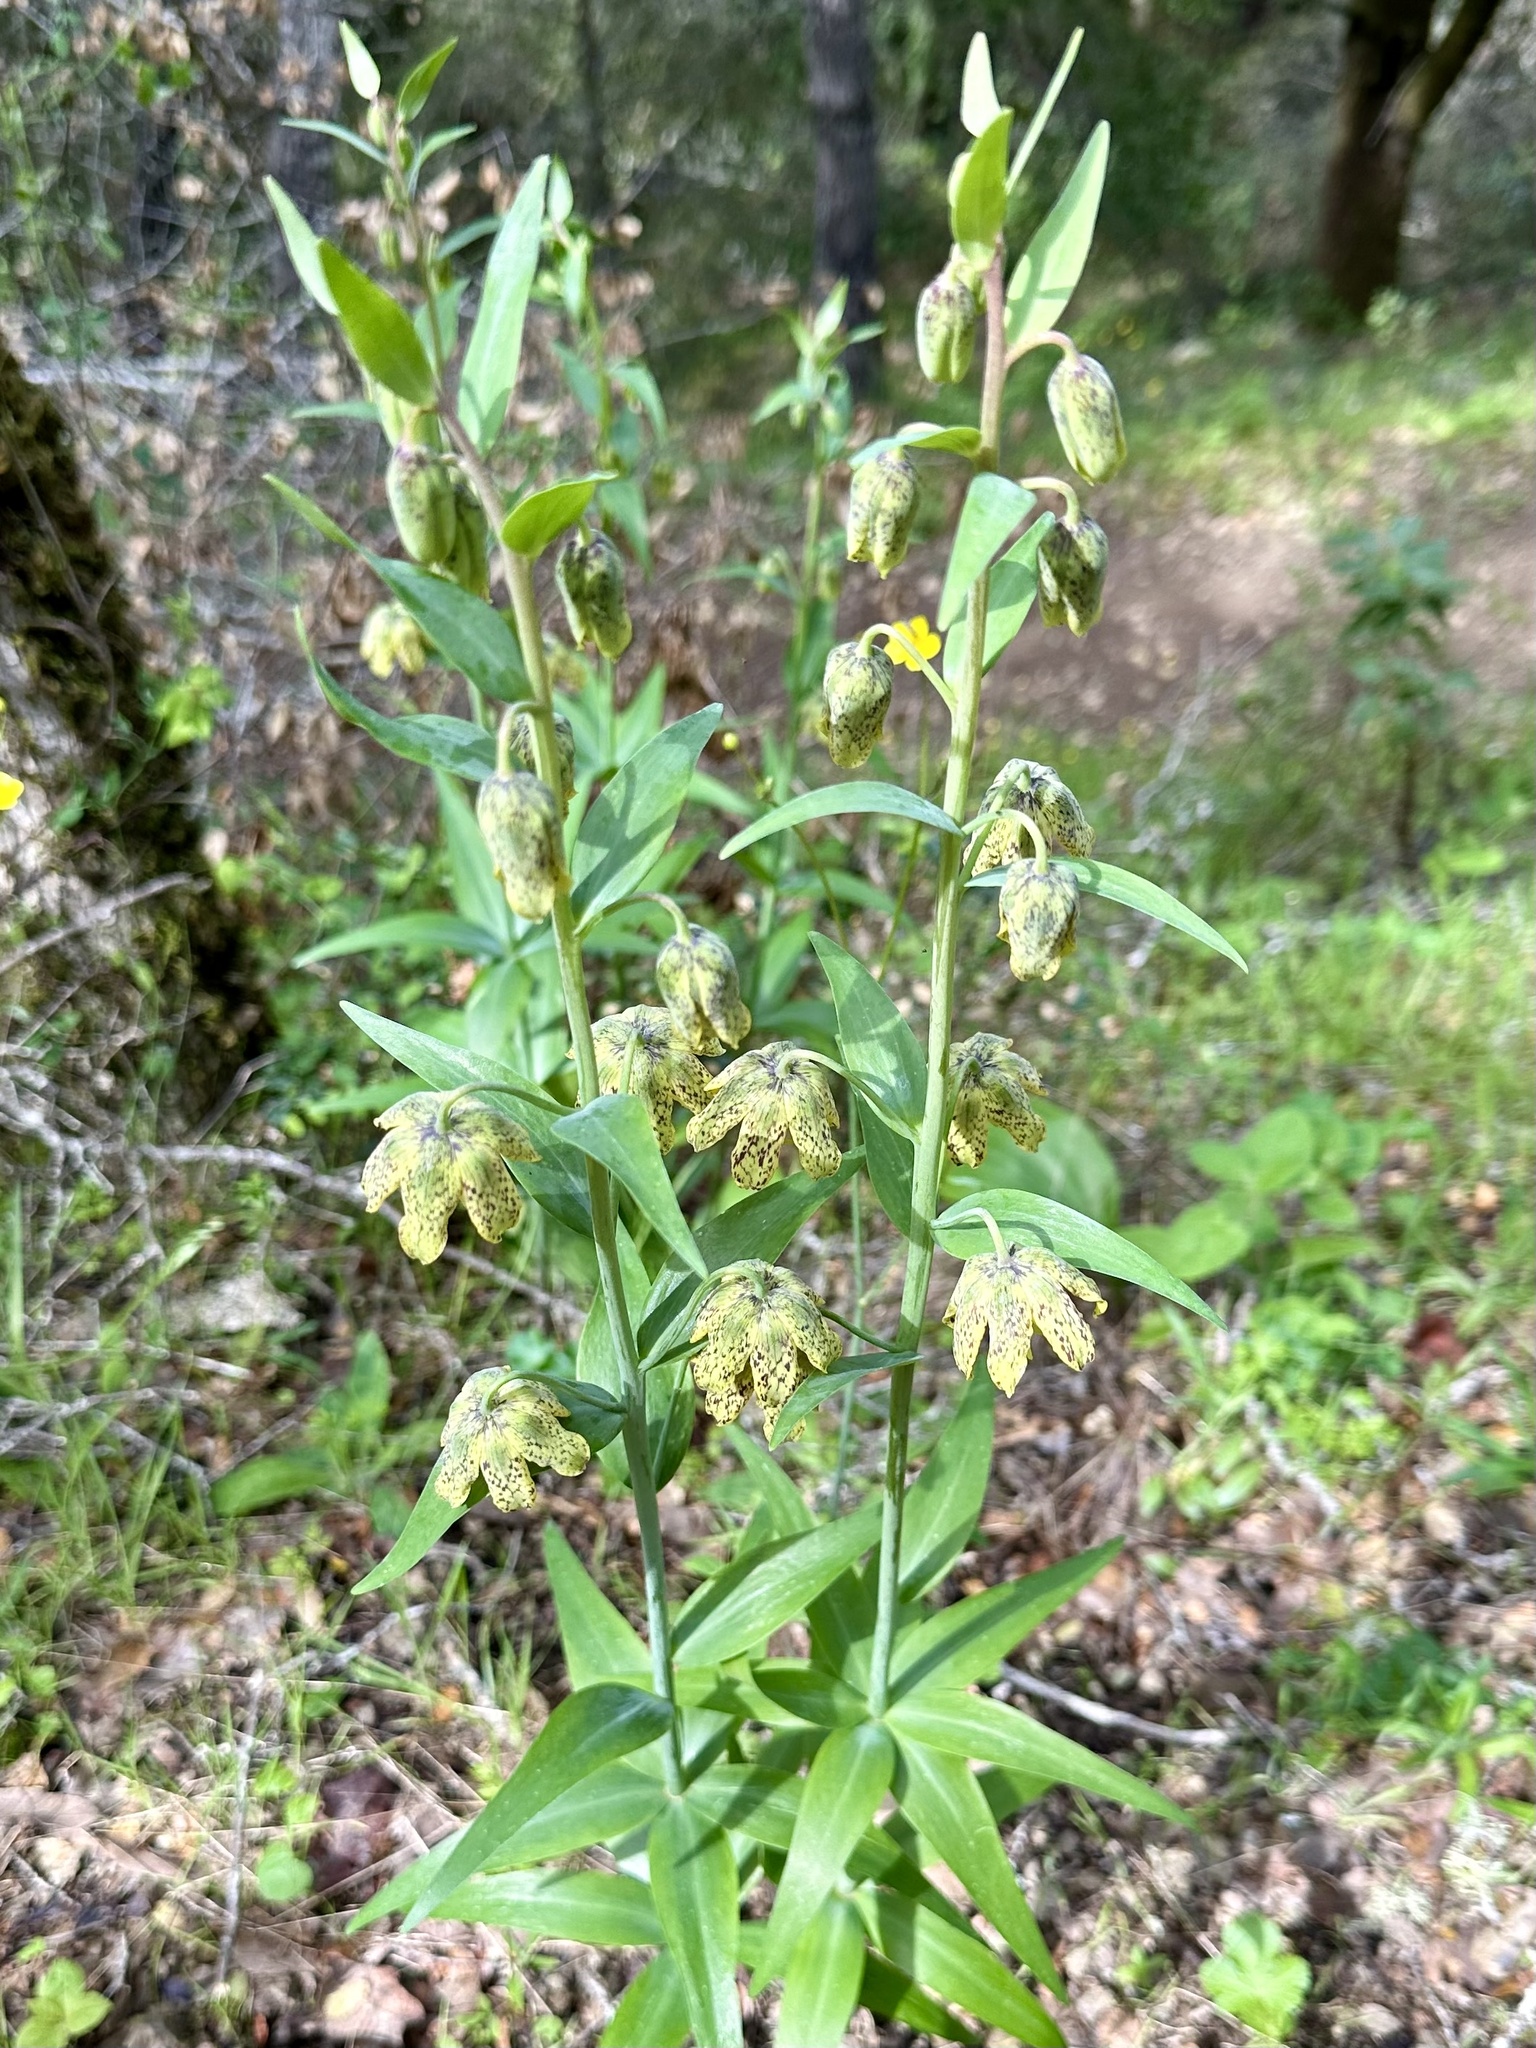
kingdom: Plantae
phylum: Tracheophyta
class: Liliopsida
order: Liliales
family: Liliaceae
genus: Fritillaria
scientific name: Fritillaria affinis
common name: Ojai fritillary
